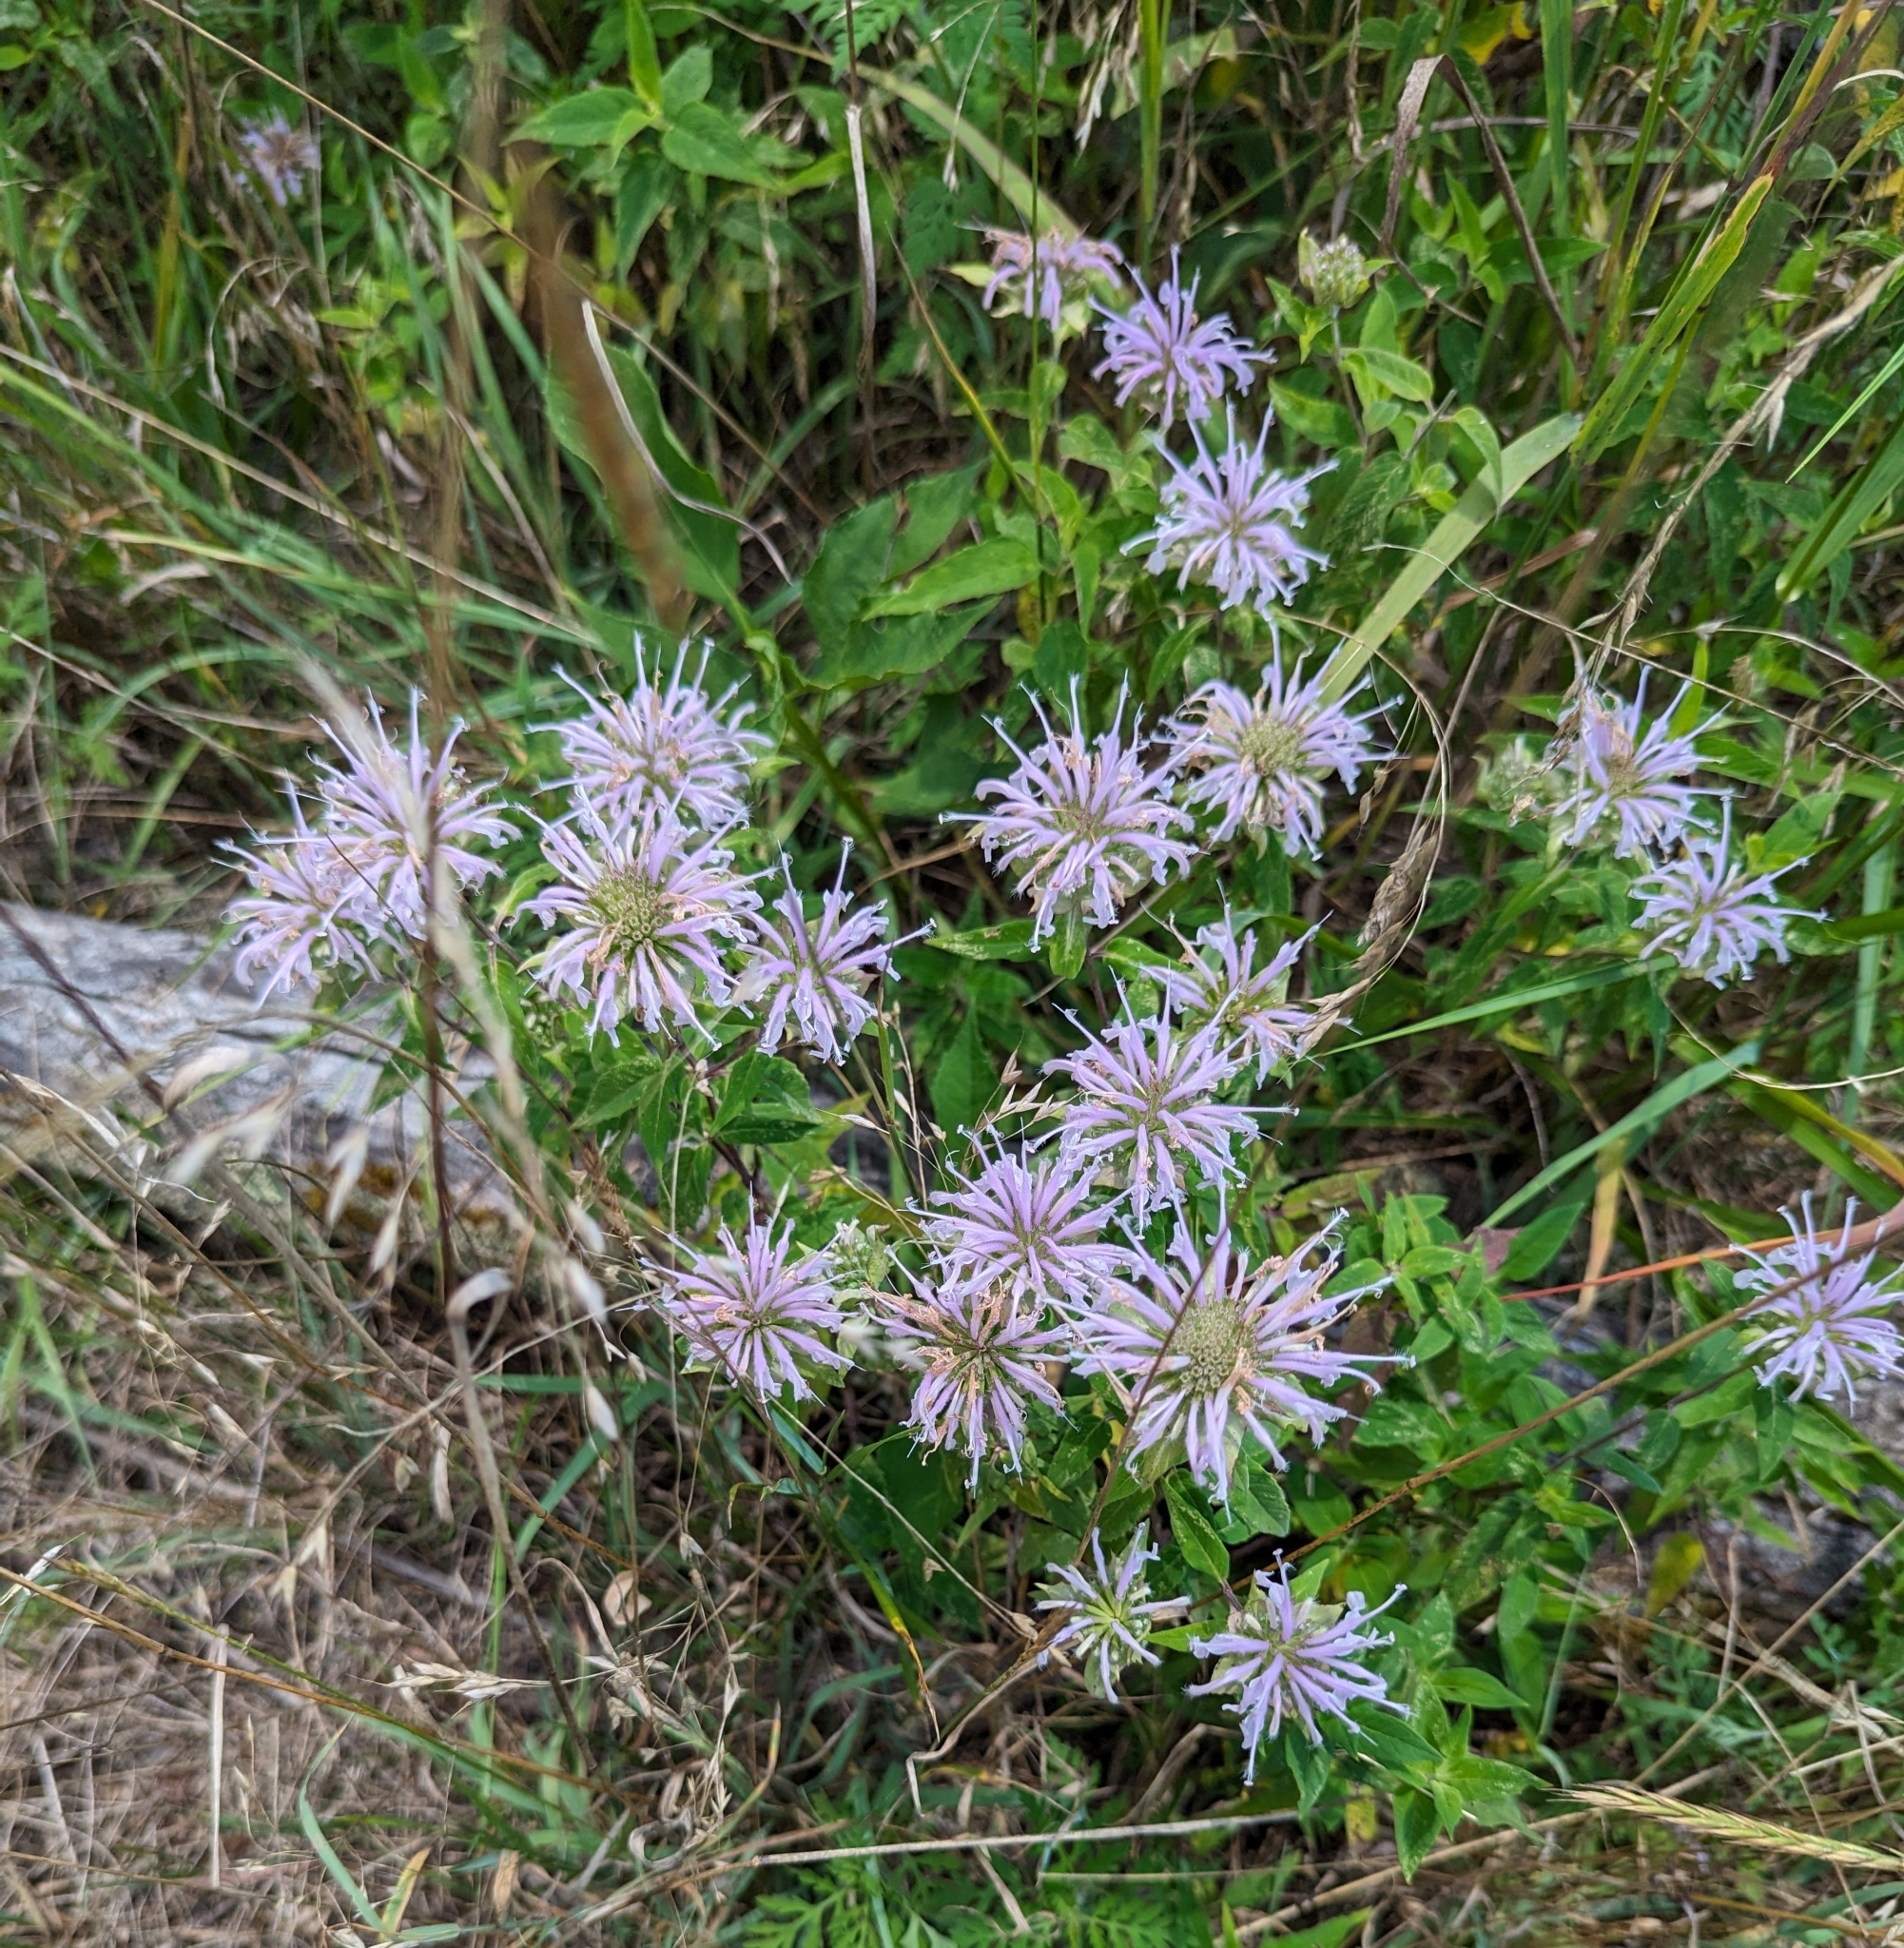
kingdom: Plantae
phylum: Tracheophyta
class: Magnoliopsida
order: Lamiales
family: Lamiaceae
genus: Monarda
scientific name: Monarda fistulosa
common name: Purple beebalm
